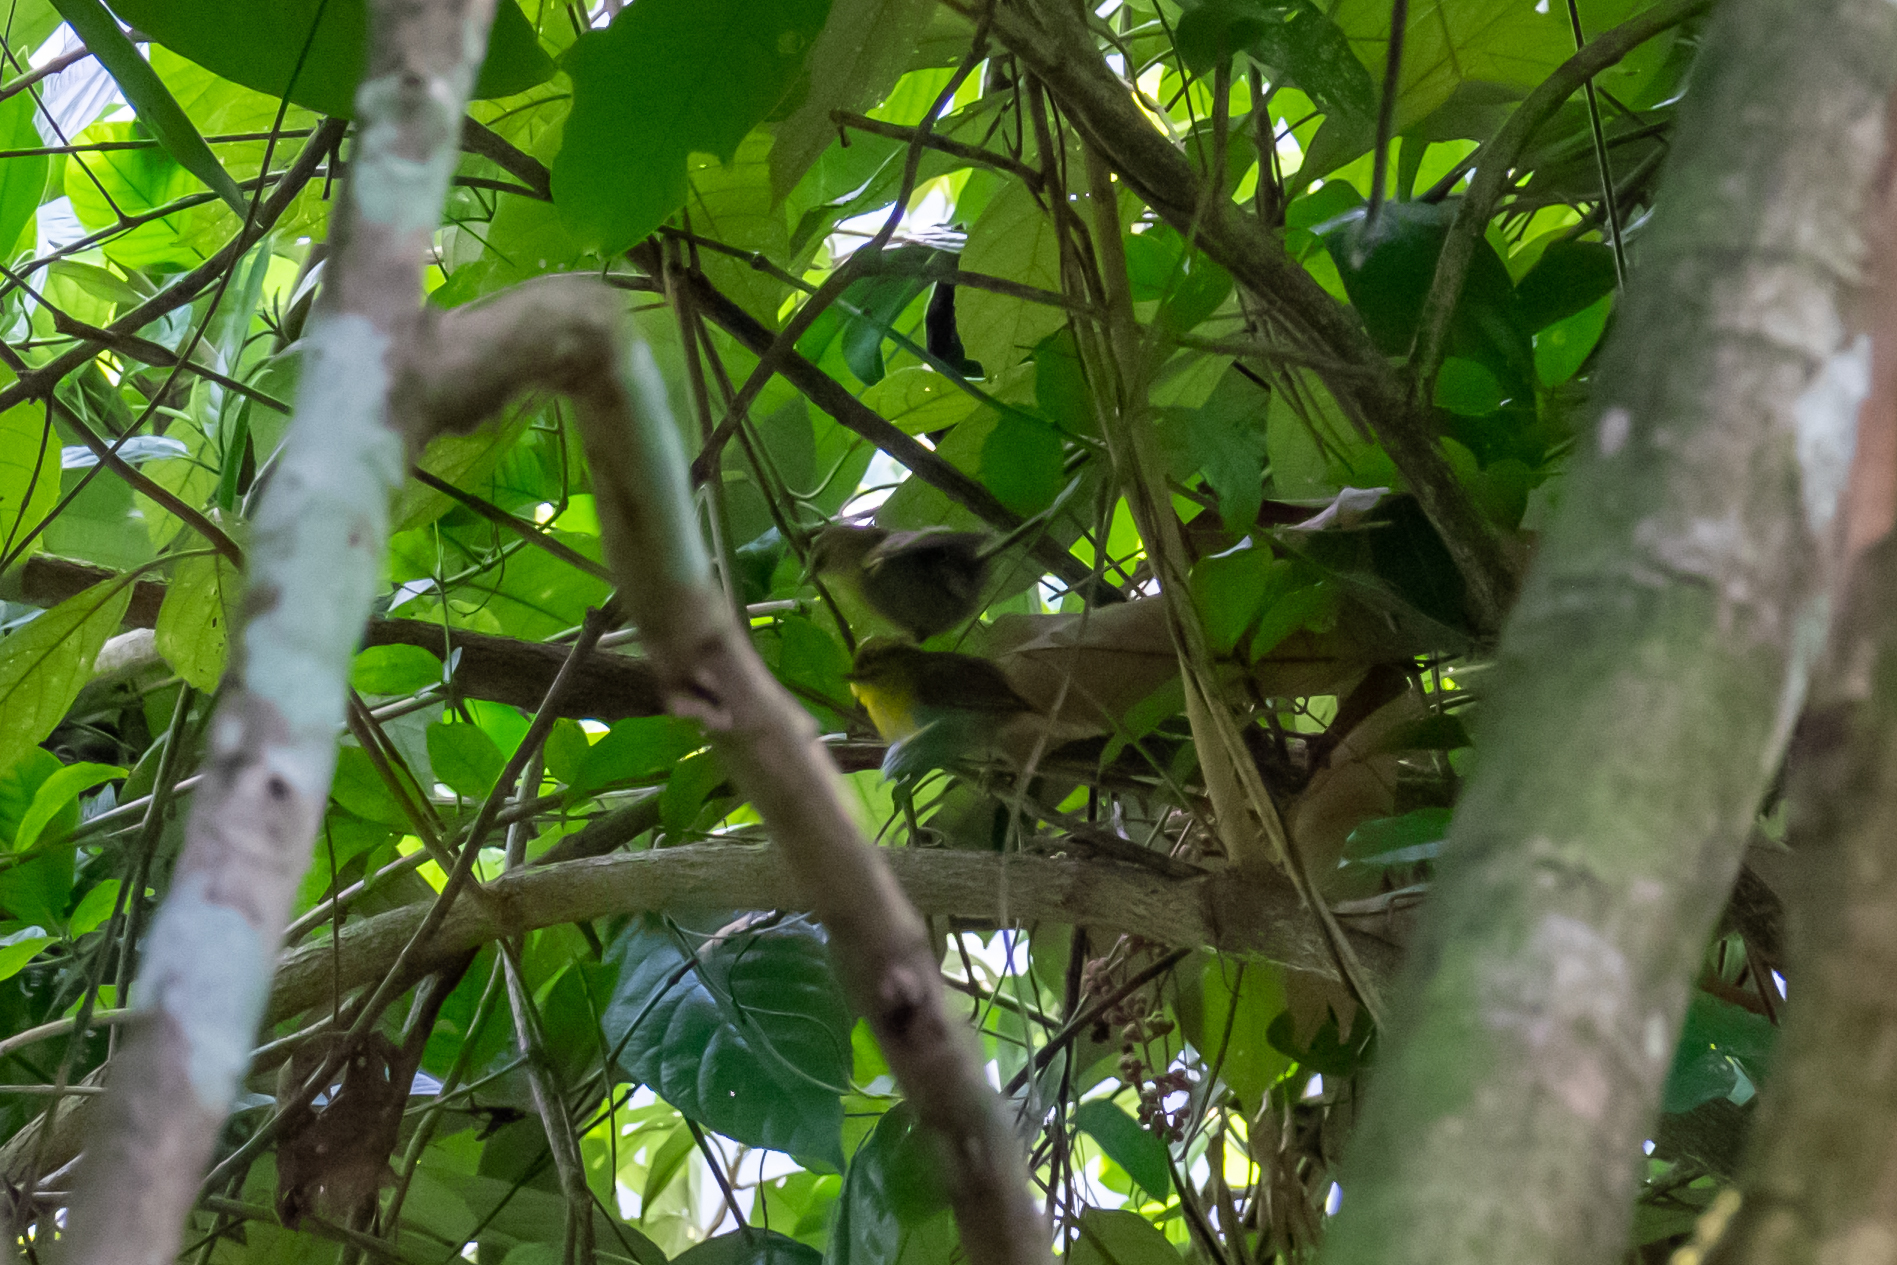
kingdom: Animalia
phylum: Chordata
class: Aves
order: Passeriformes
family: Timaliidae
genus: Macronus
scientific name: Macronus gularis
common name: Striped tit-babbler
